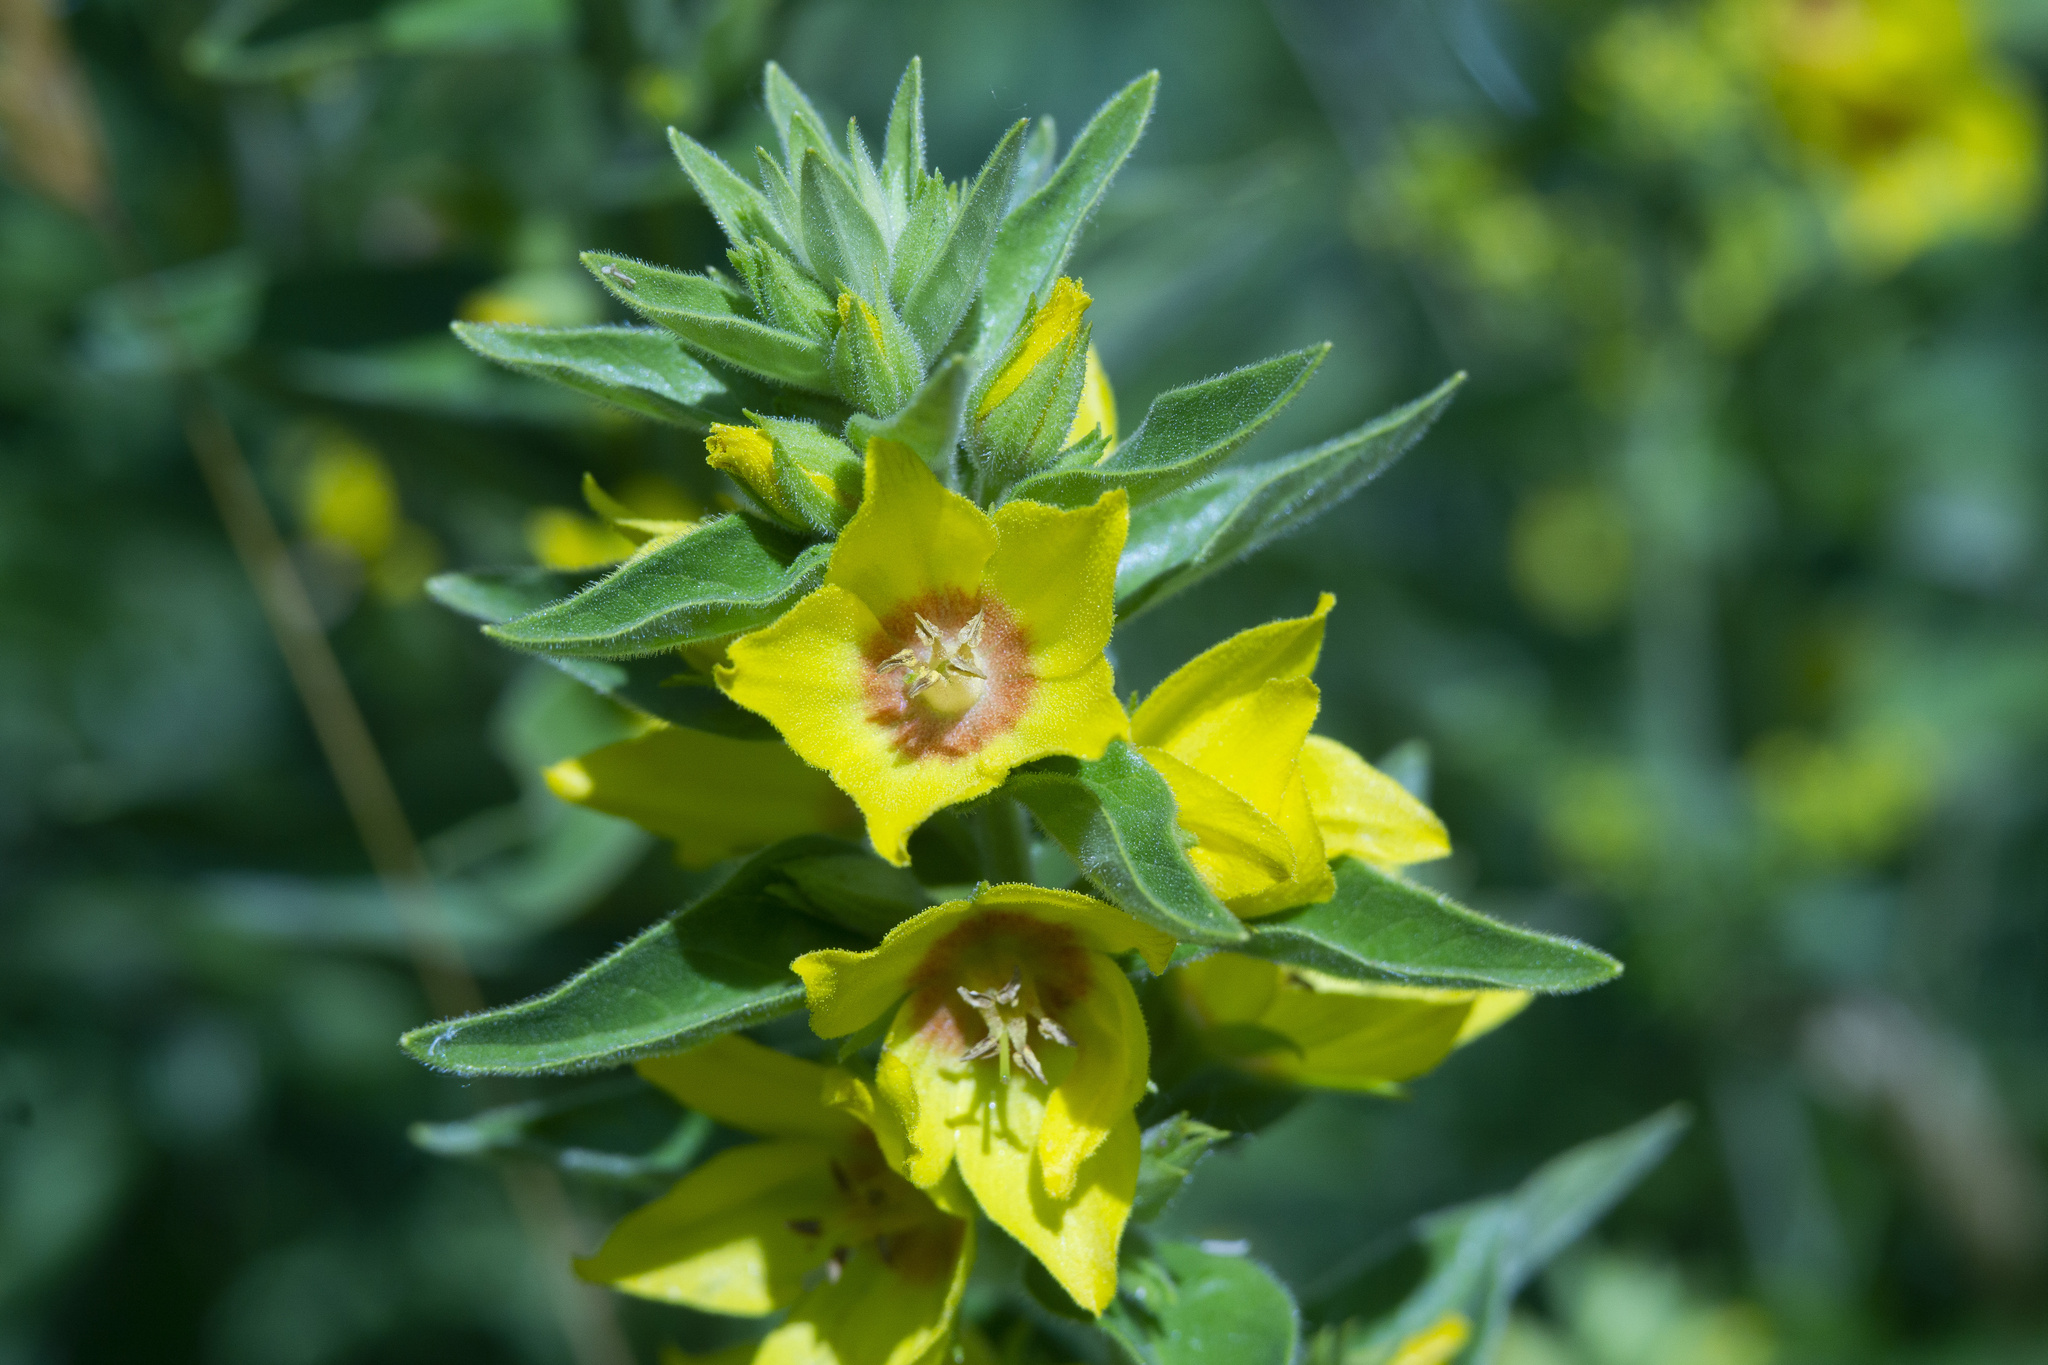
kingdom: Plantae
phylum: Tracheophyta
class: Magnoliopsida
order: Ericales
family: Primulaceae
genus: Lysimachia
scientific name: Lysimachia punctata
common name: Dotted loosestrife
